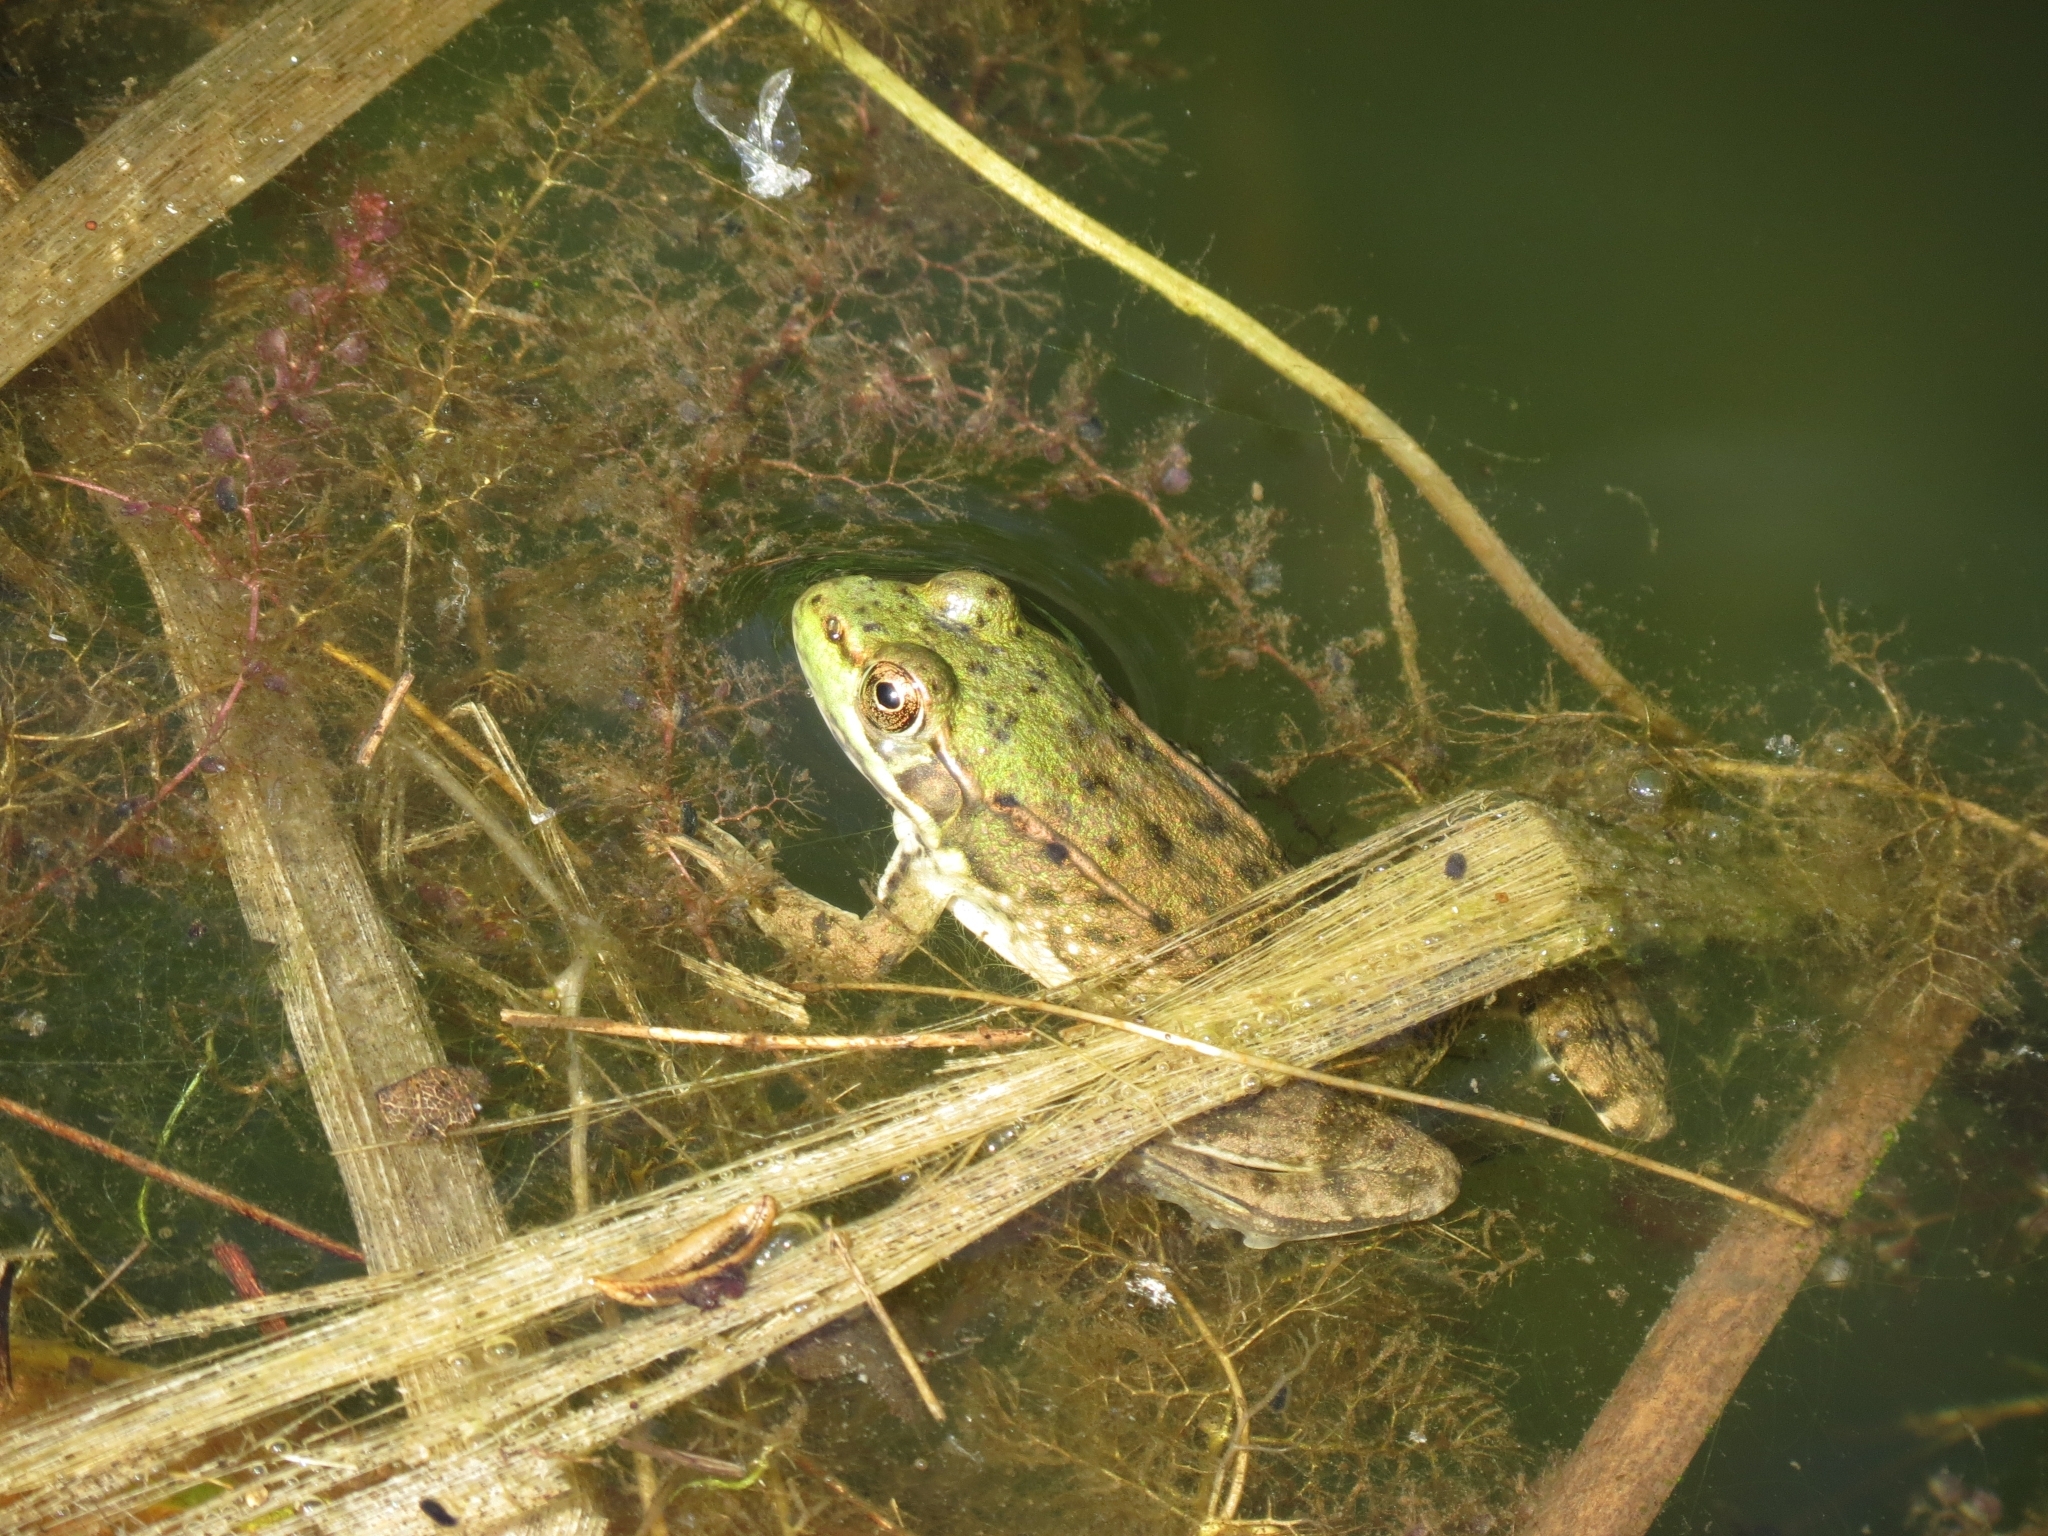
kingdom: Animalia
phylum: Chordata
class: Amphibia
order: Anura
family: Ranidae
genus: Lithobates
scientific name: Lithobates clamitans
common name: Green frog
